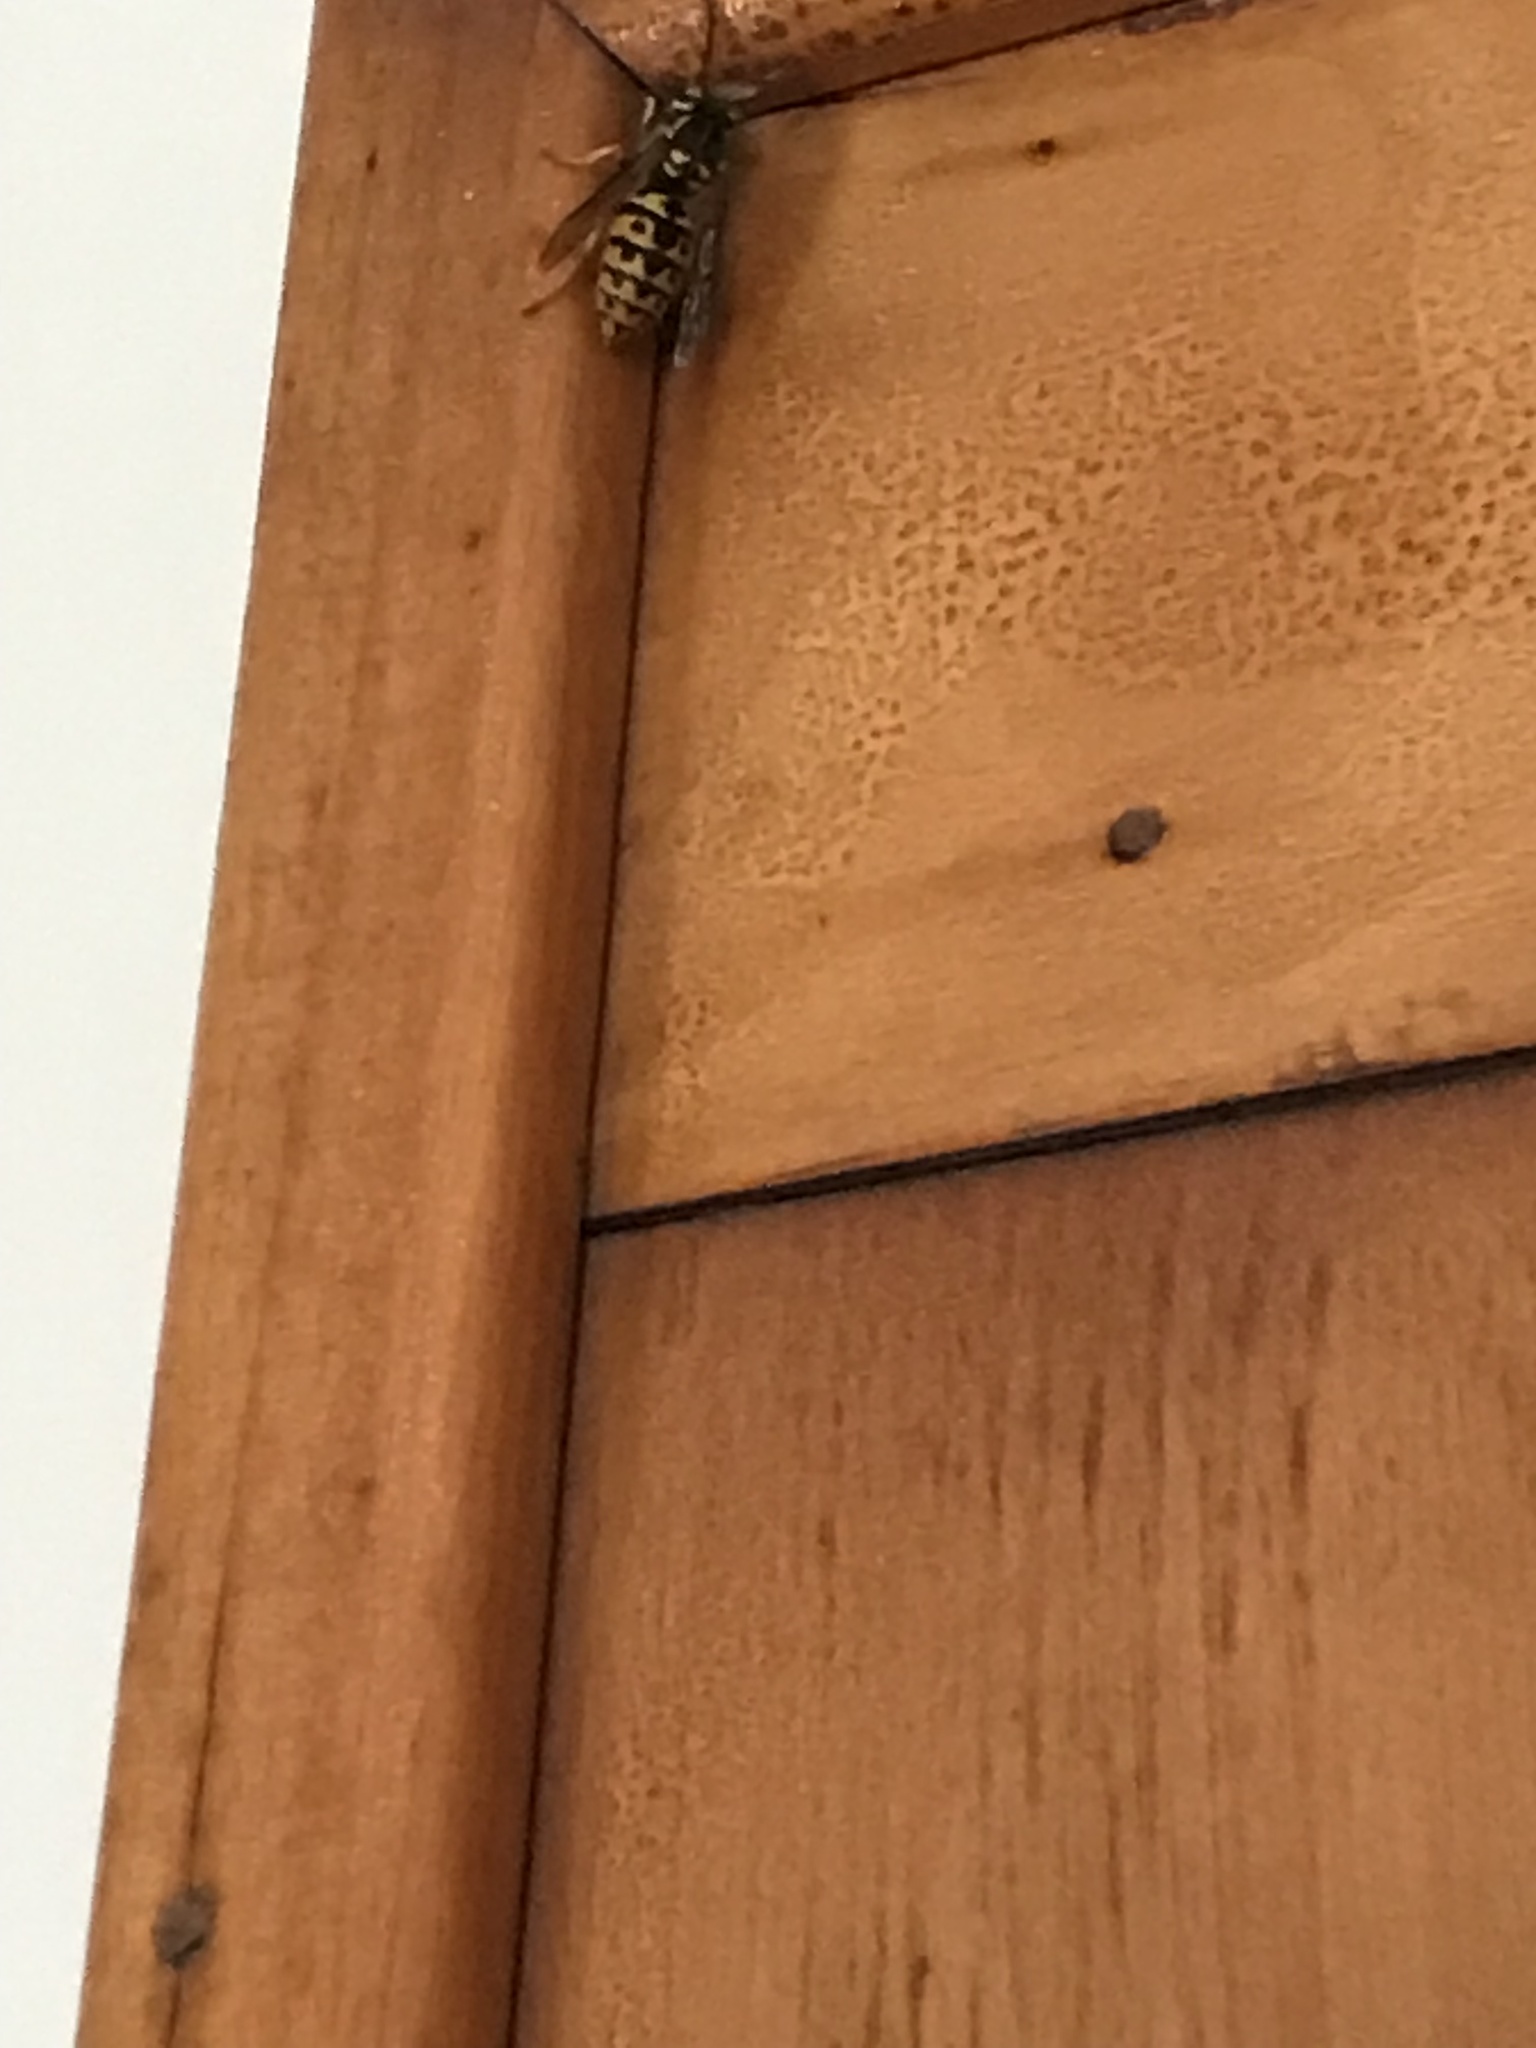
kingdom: Animalia
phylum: Arthropoda
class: Insecta
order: Hymenoptera
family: Vespidae
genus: Vespula
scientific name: Vespula germanica
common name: German wasp
